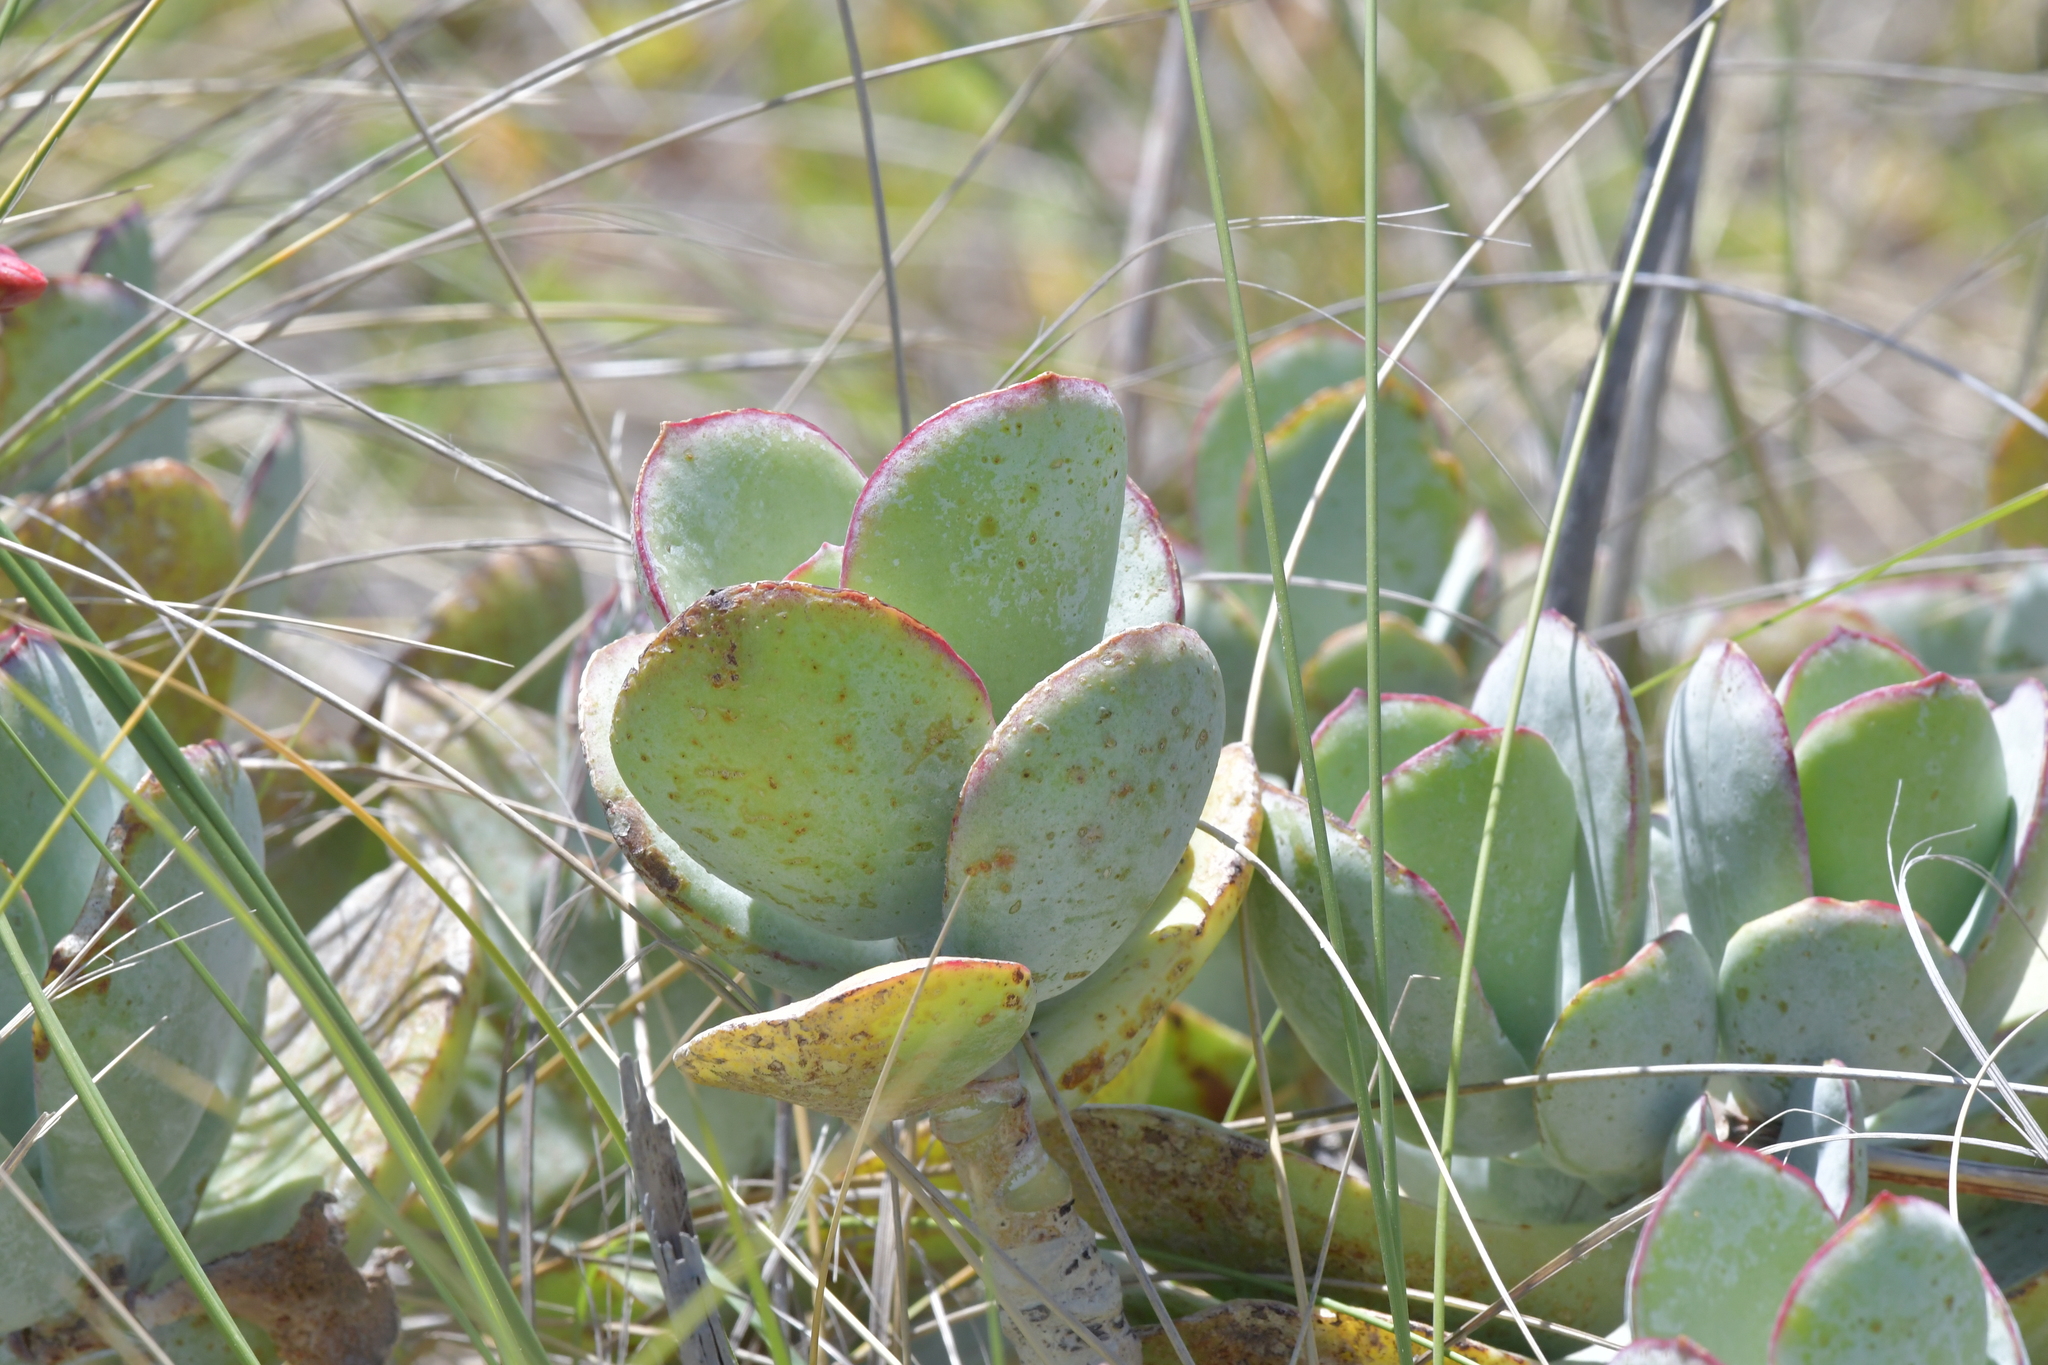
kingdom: Plantae
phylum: Tracheophyta
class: Magnoliopsida
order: Saxifragales
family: Crassulaceae
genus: Cotyledon
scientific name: Cotyledon orbiculata
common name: Pig's ear
